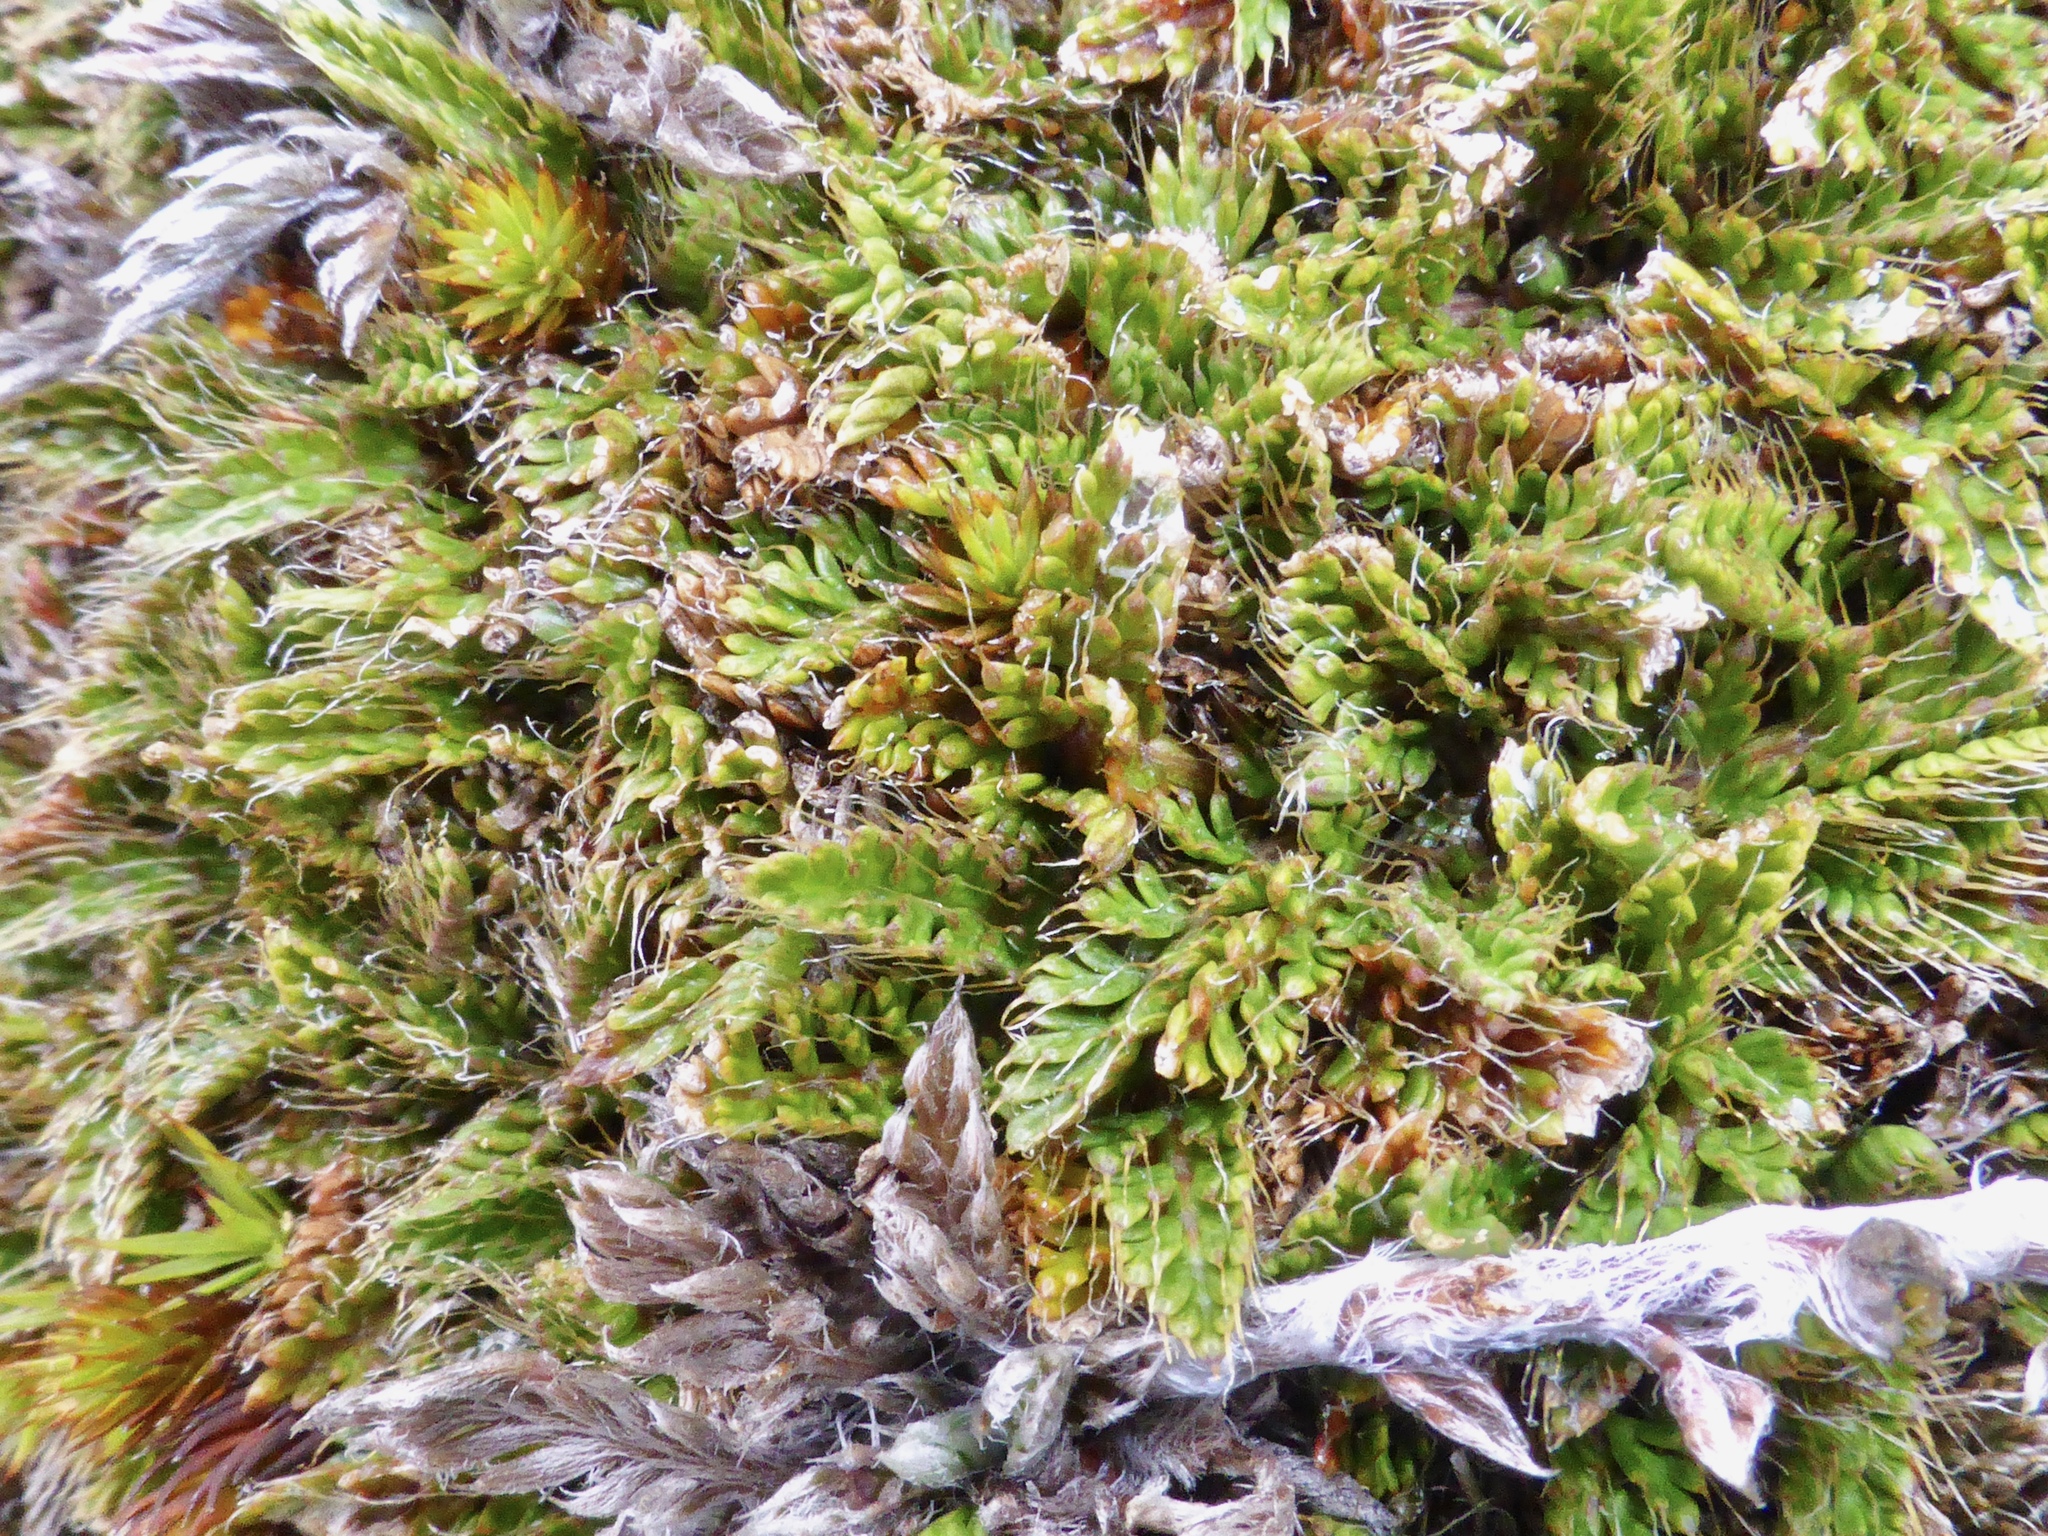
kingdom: Plantae
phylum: Tracheophyta
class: Magnoliopsida
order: Apiales
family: Apiaceae
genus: Anisotome
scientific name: Anisotome imbricata
